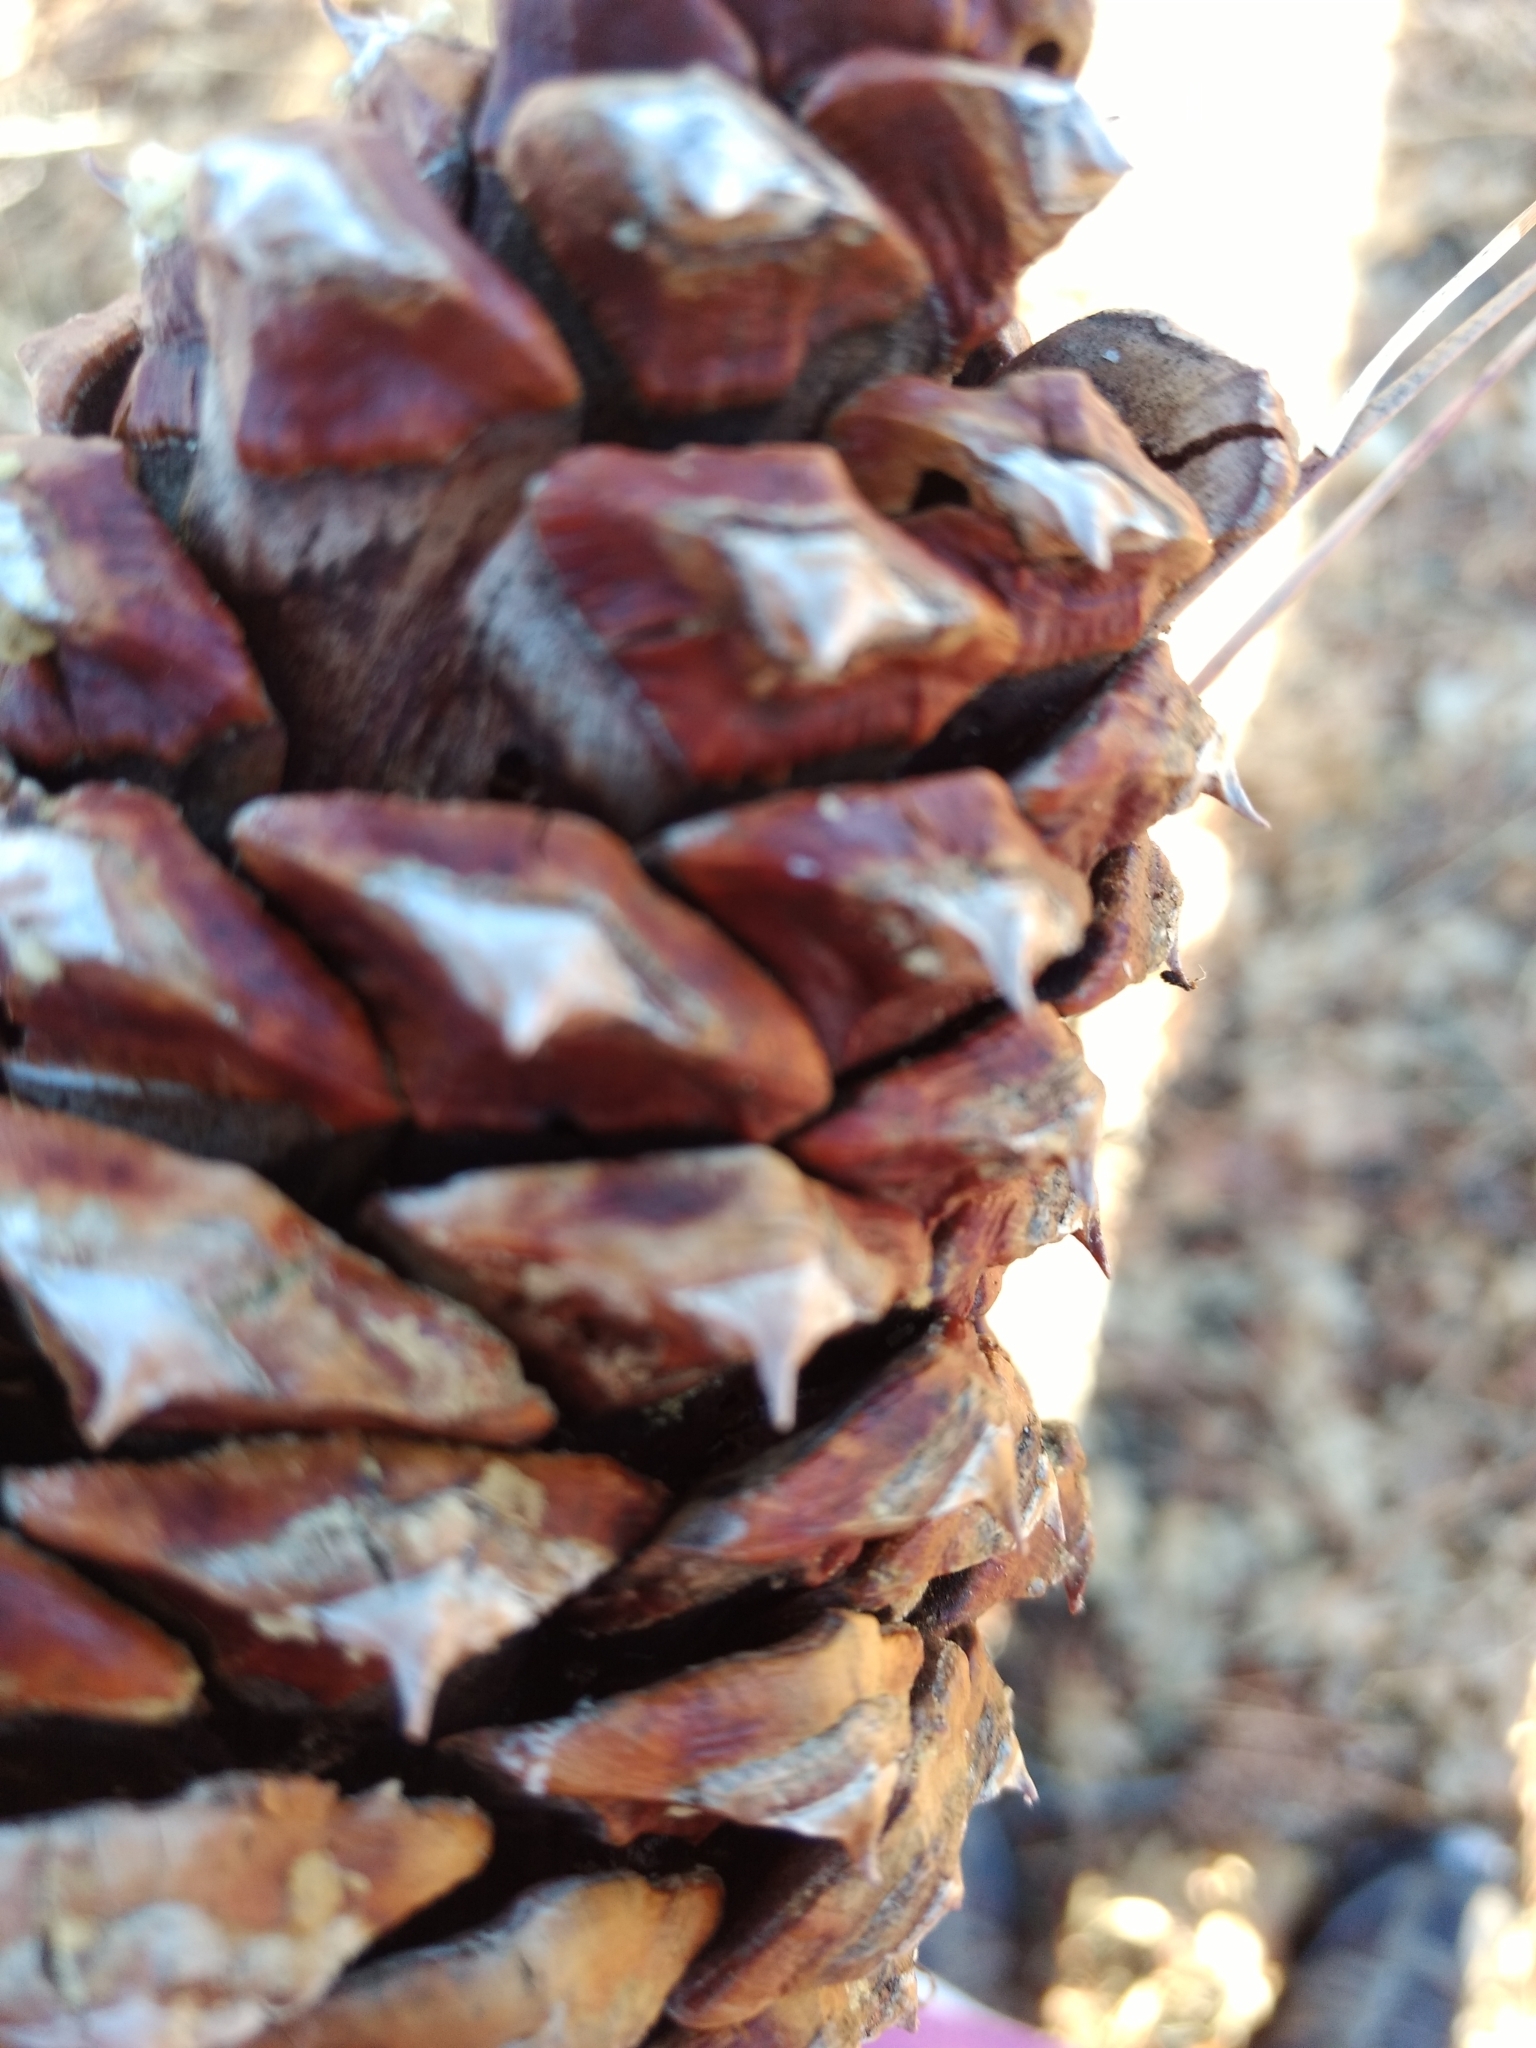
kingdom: Plantae
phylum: Tracheophyta
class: Pinopsida
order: Pinales
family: Pinaceae
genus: Pinus
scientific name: Pinus ponderosa
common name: Western yellow-pine
